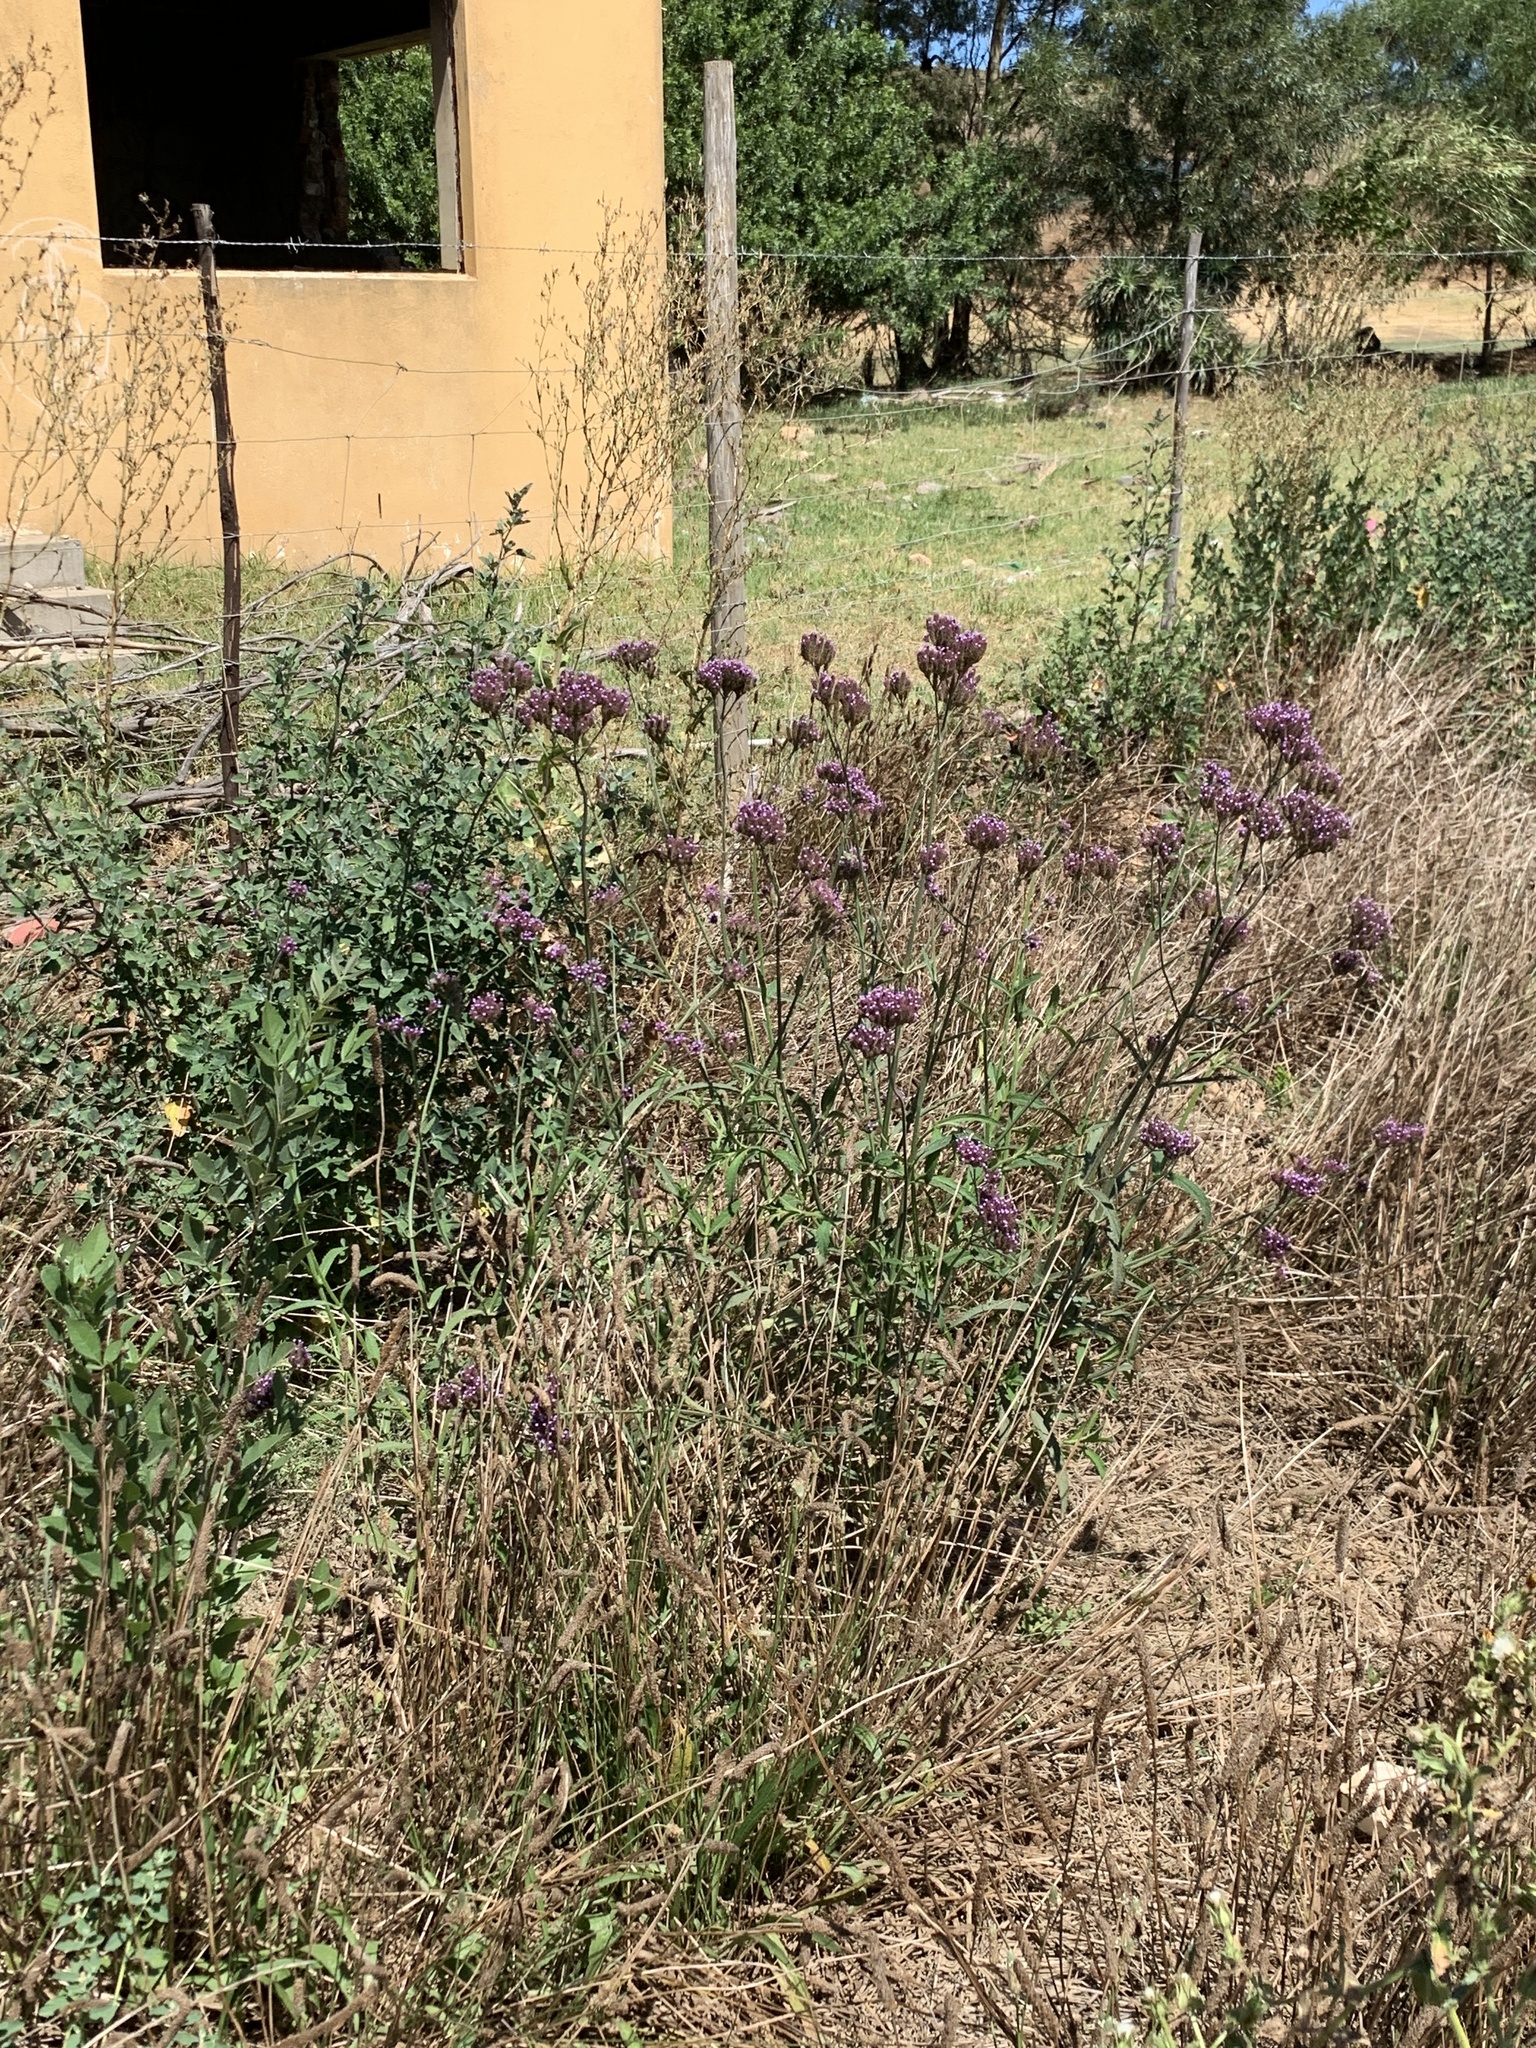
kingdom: Plantae
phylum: Tracheophyta
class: Magnoliopsida
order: Lamiales
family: Verbenaceae
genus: Verbena
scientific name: Verbena bonariensis
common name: Purpletop vervain
